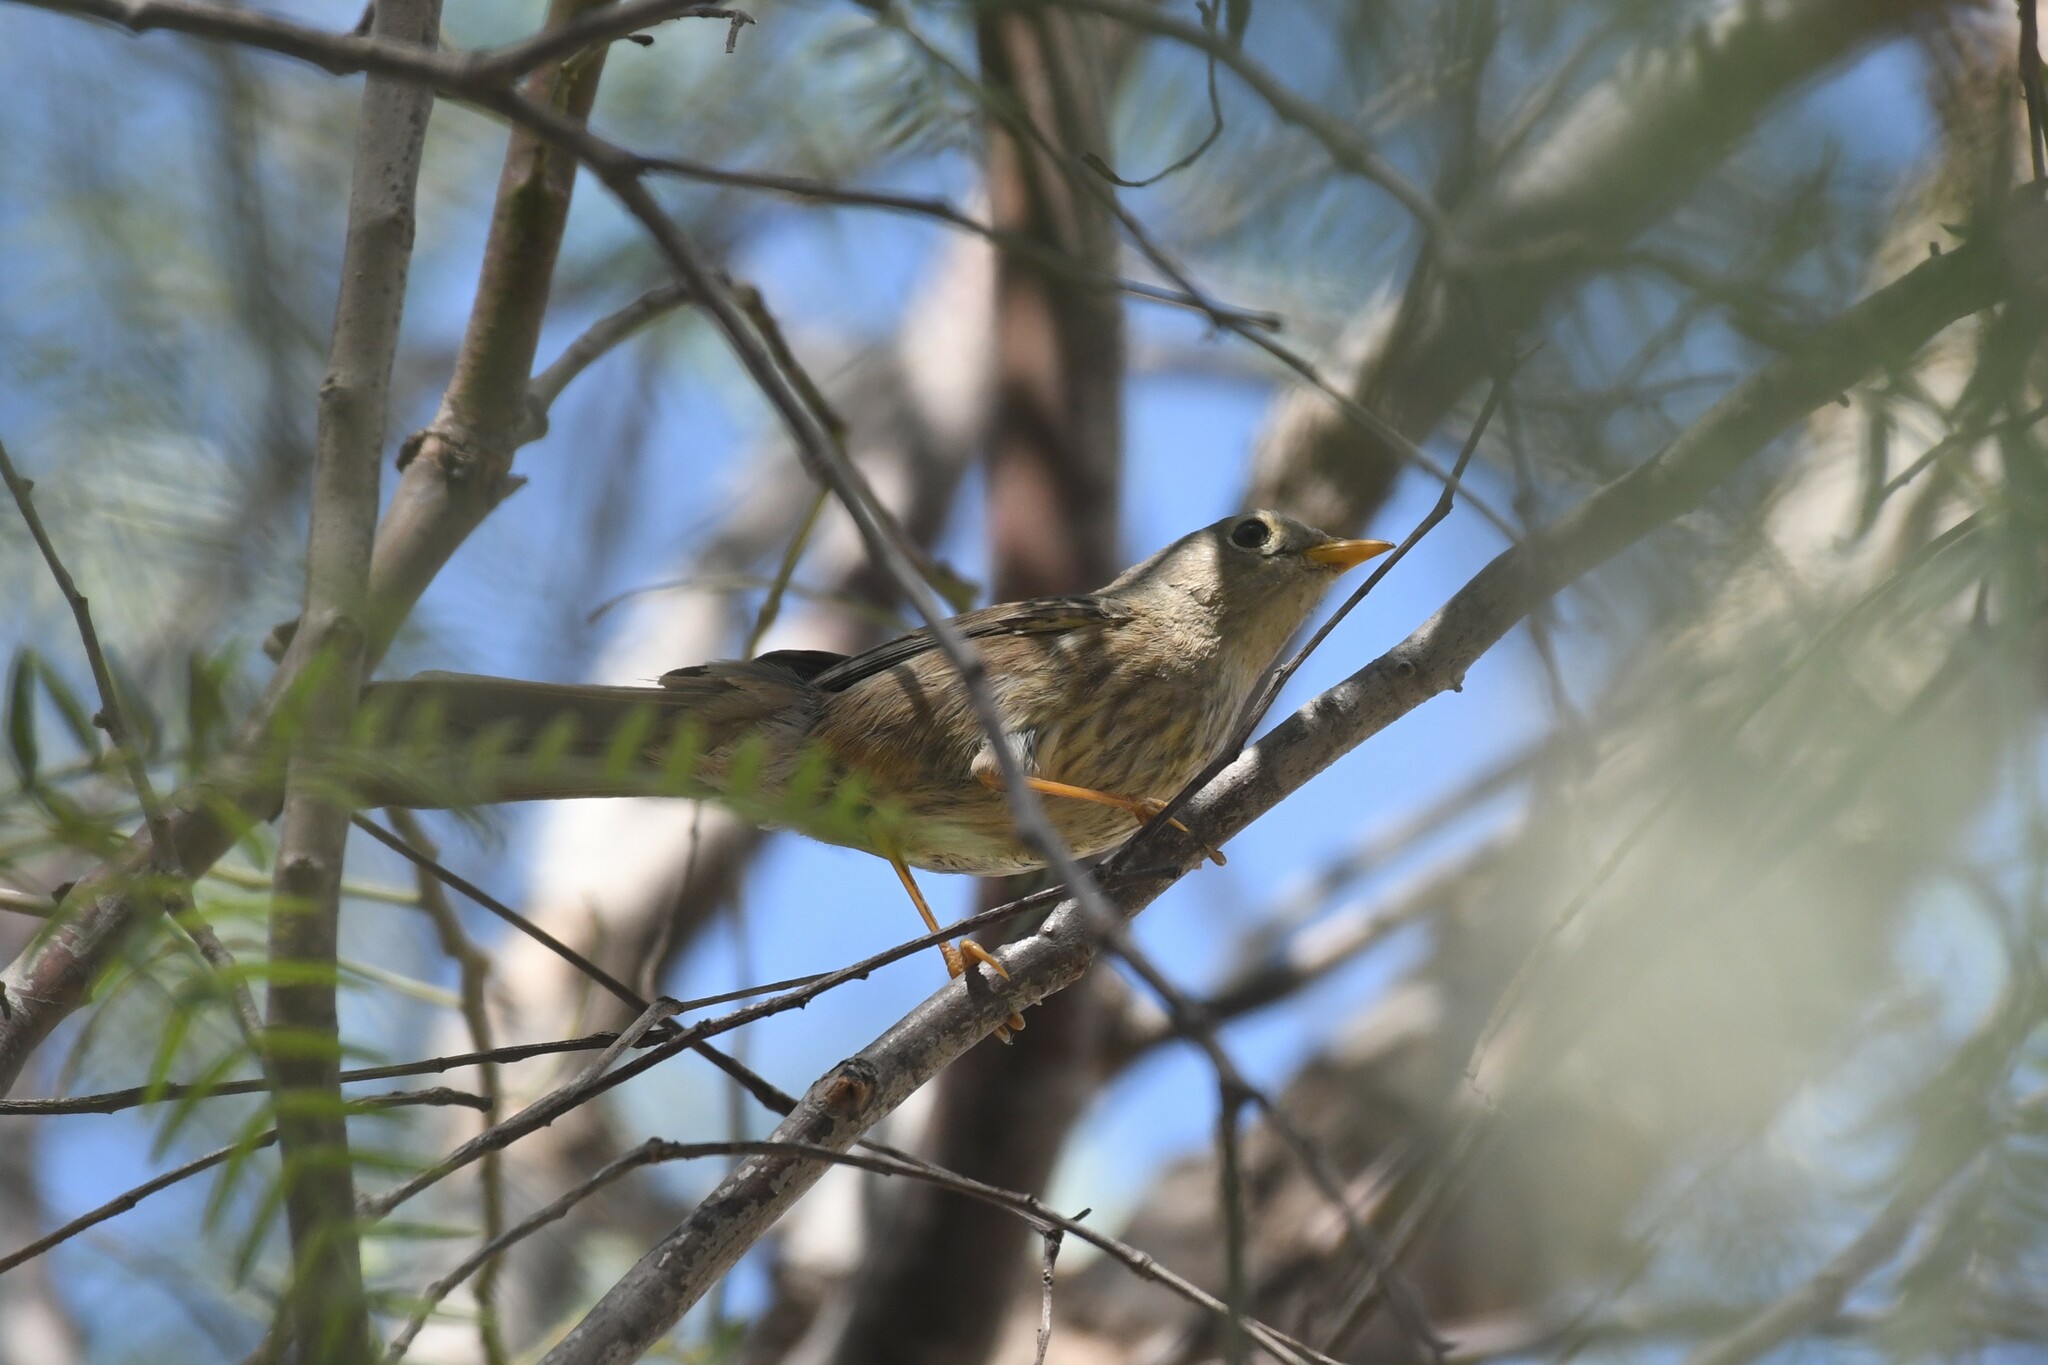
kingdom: Animalia
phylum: Chordata
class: Aves
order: Passeriformes
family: Thraupidae
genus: Xenospingus
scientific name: Xenospingus concolor
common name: Slender-billed finch
